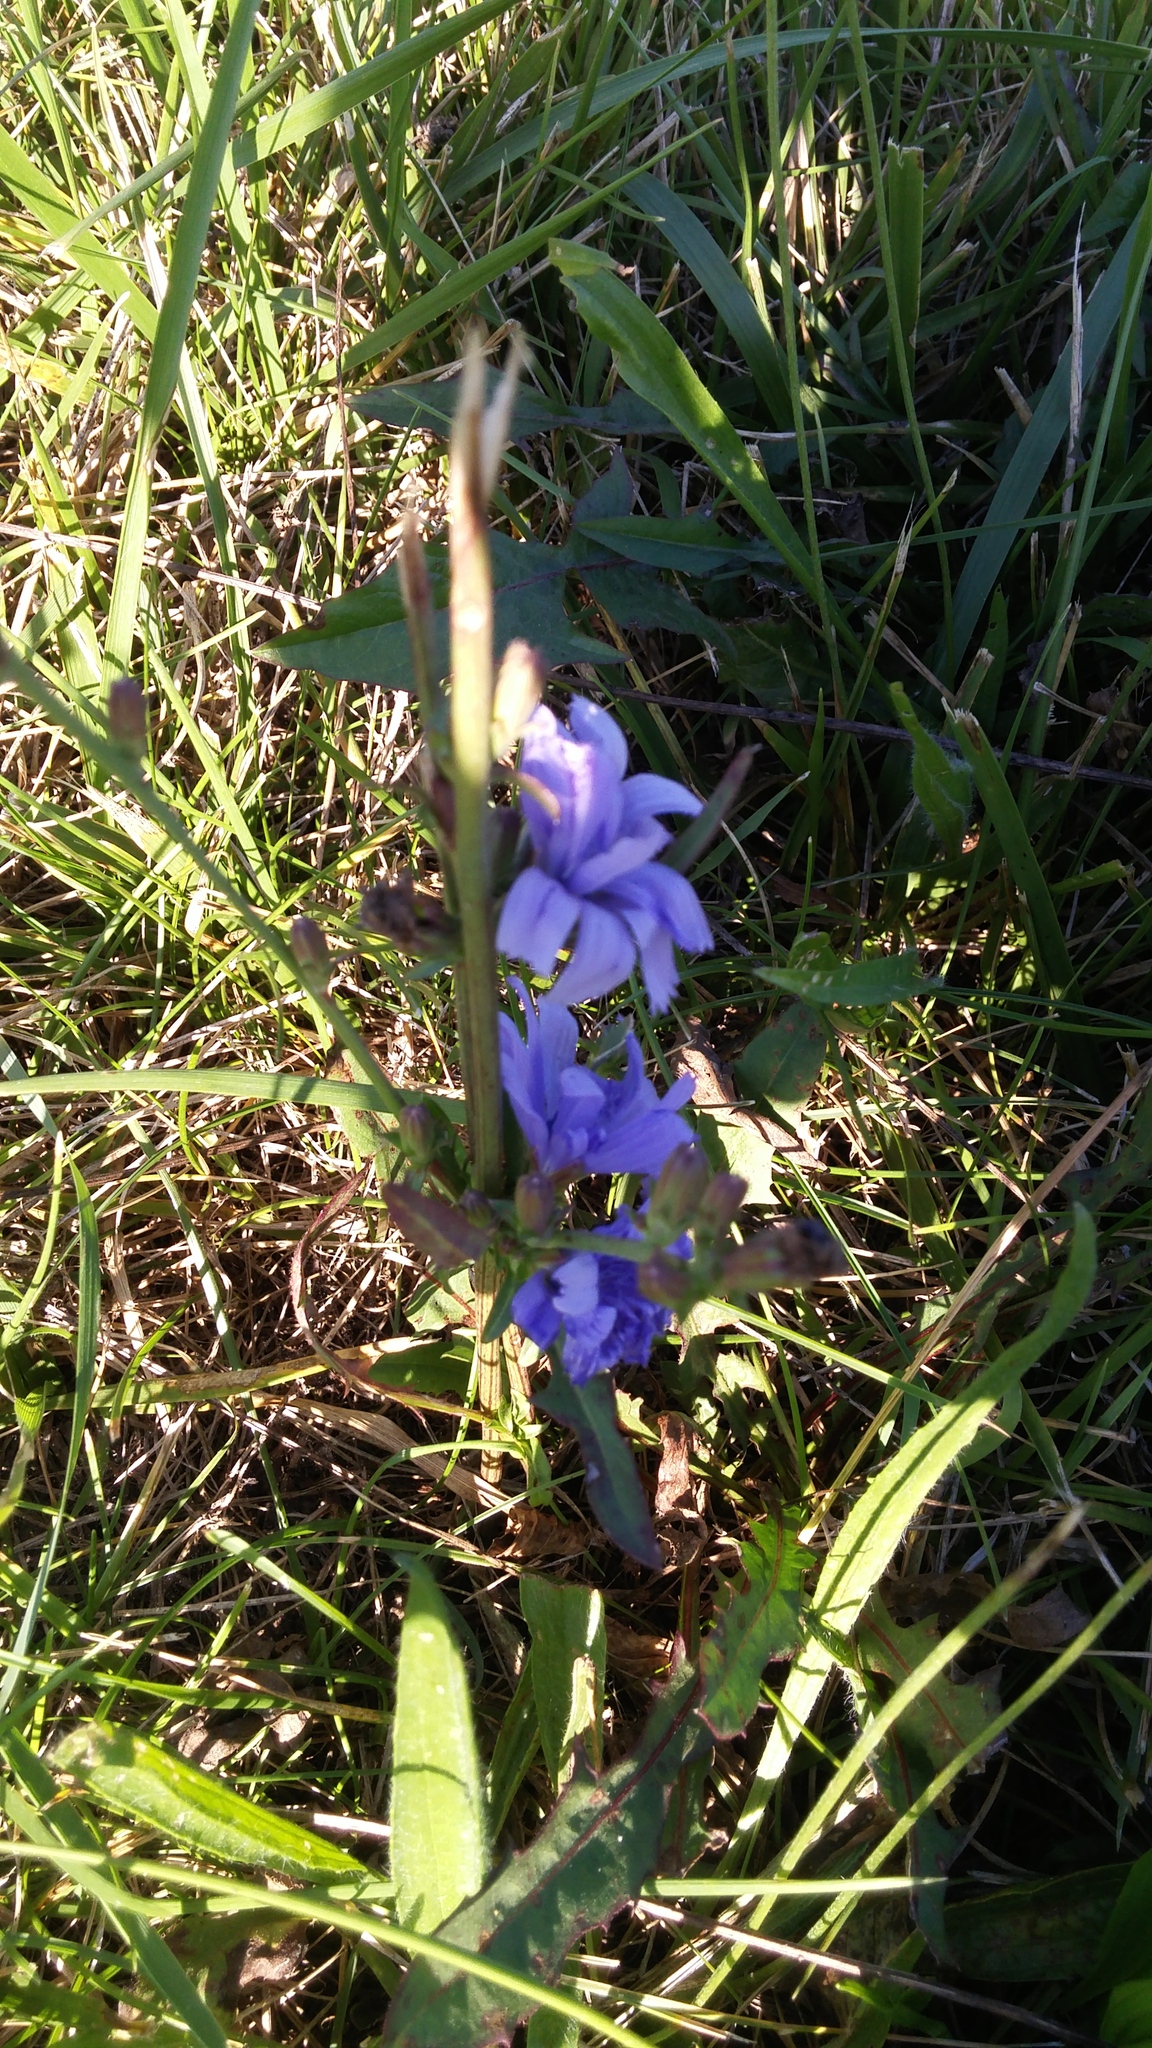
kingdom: Plantae
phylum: Tracheophyta
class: Magnoliopsida
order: Asterales
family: Asteraceae
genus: Cichorium
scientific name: Cichorium intybus
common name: Chicory
